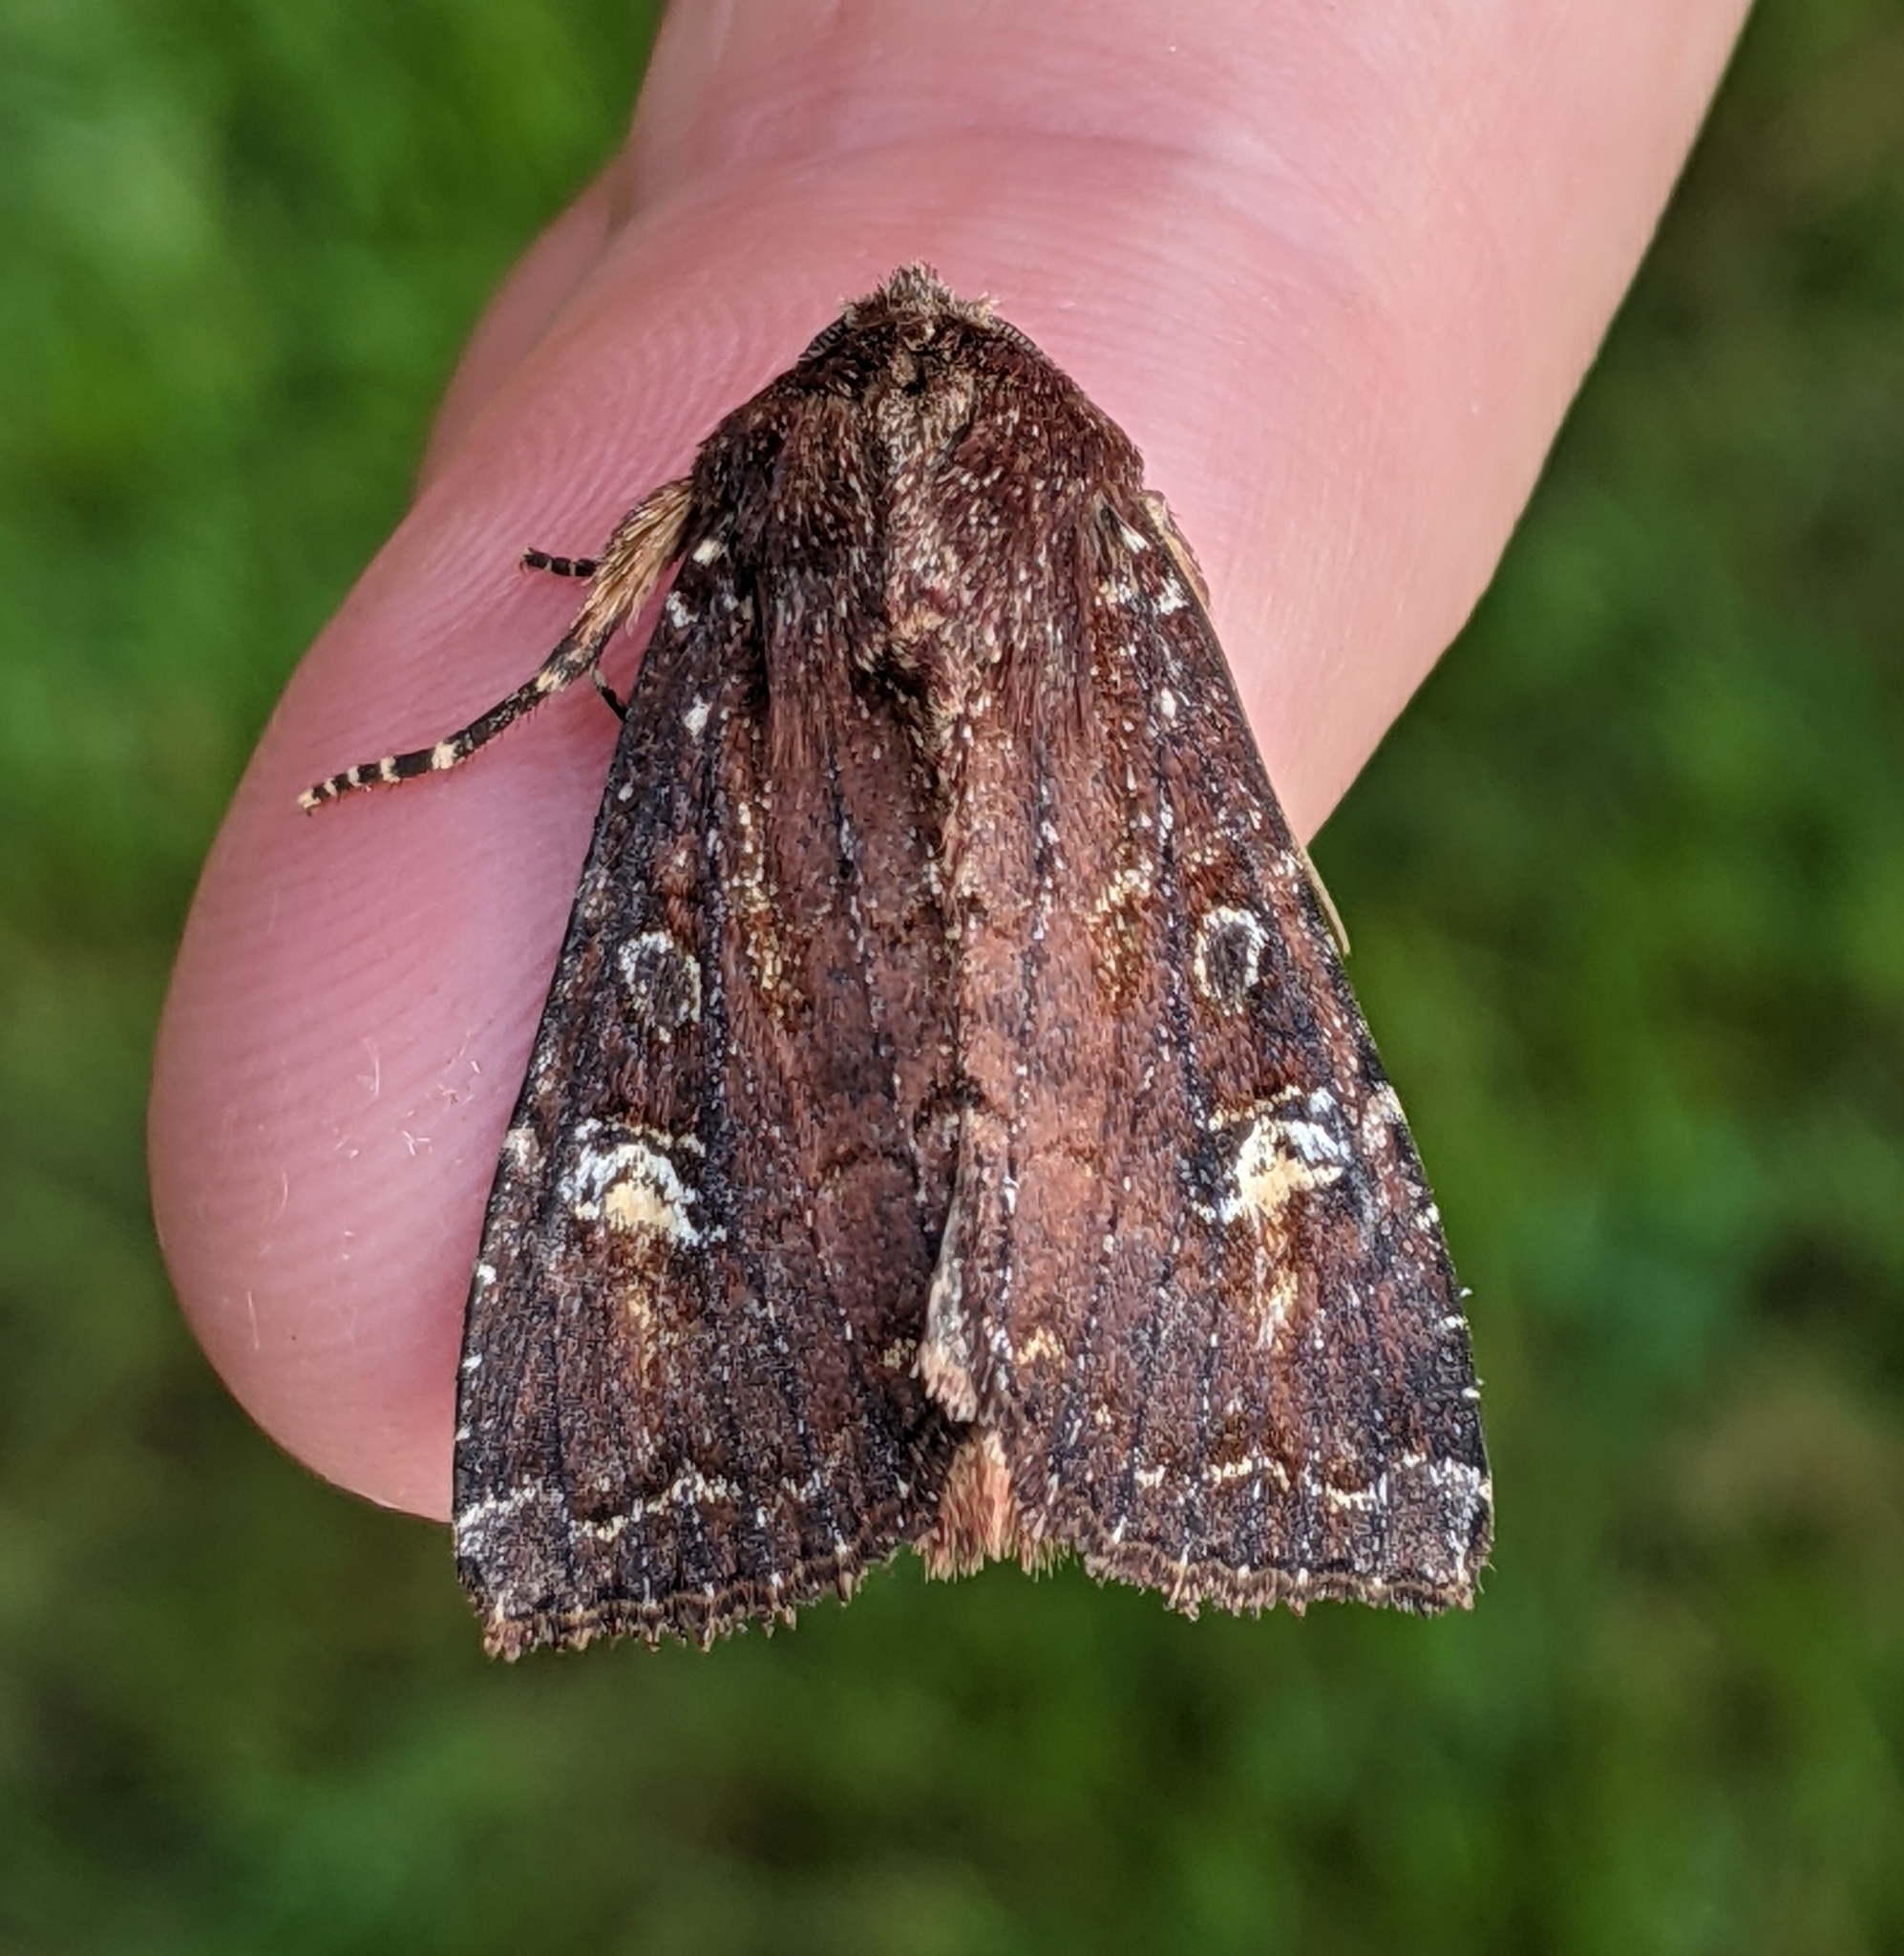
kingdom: Animalia
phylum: Arthropoda
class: Insecta
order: Lepidoptera
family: Noctuidae
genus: Apamea
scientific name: Apamea cogitata
